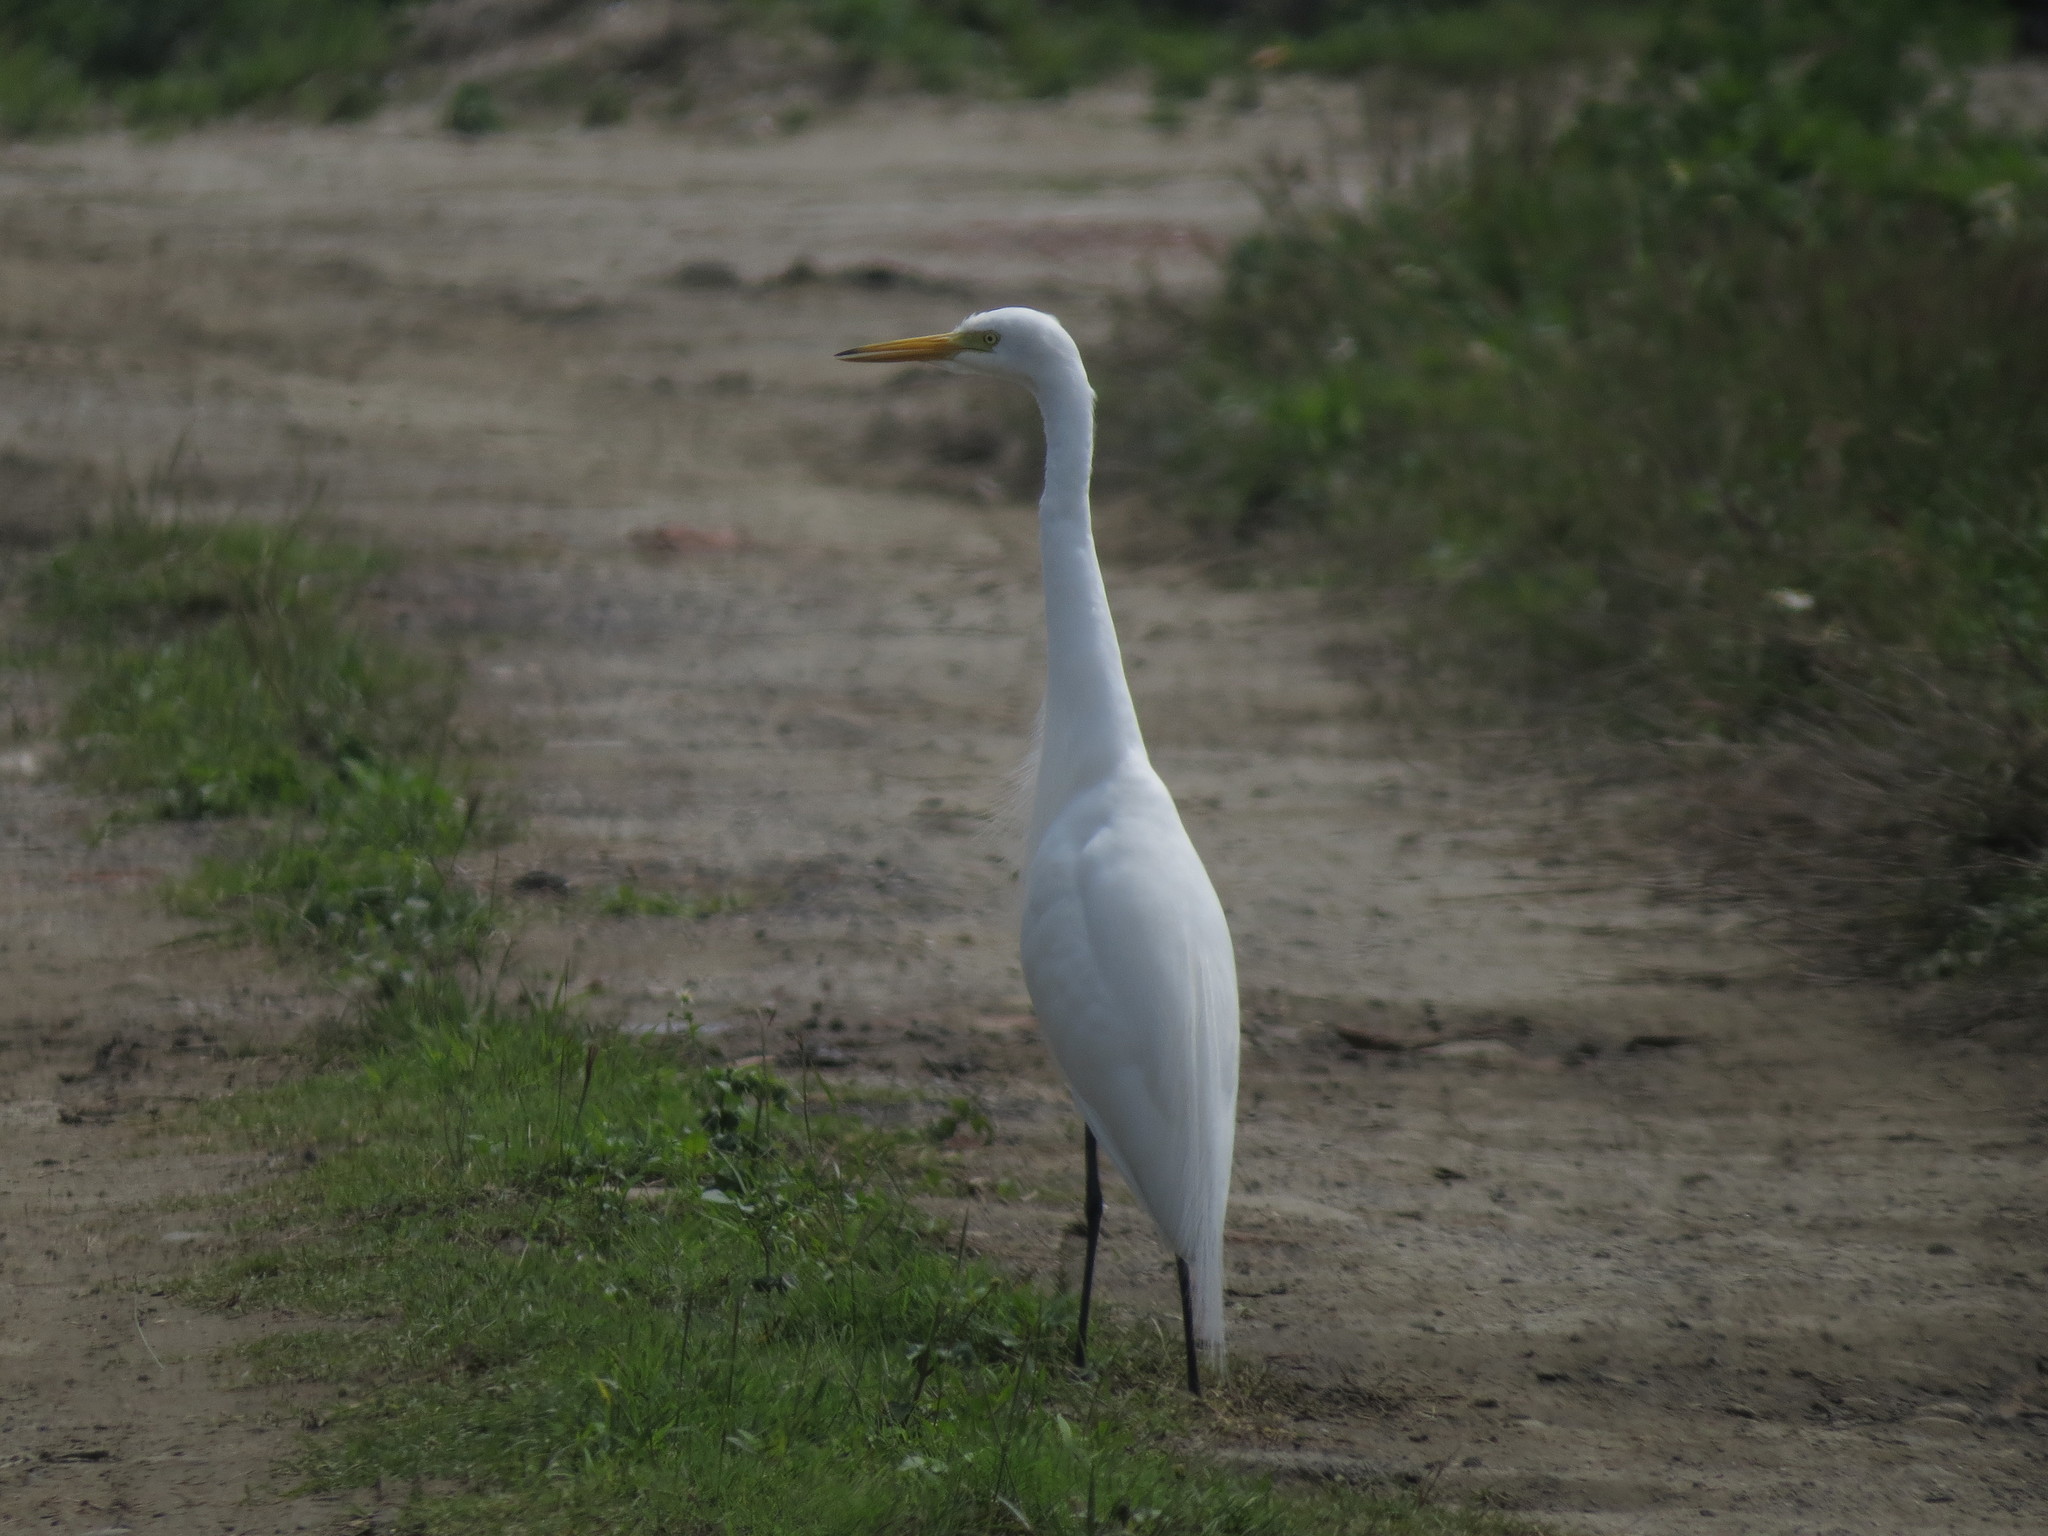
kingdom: Animalia
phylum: Chordata
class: Aves
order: Pelecaniformes
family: Ardeidae
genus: Egretta
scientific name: Egretta intermedia
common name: Intermediate egret
